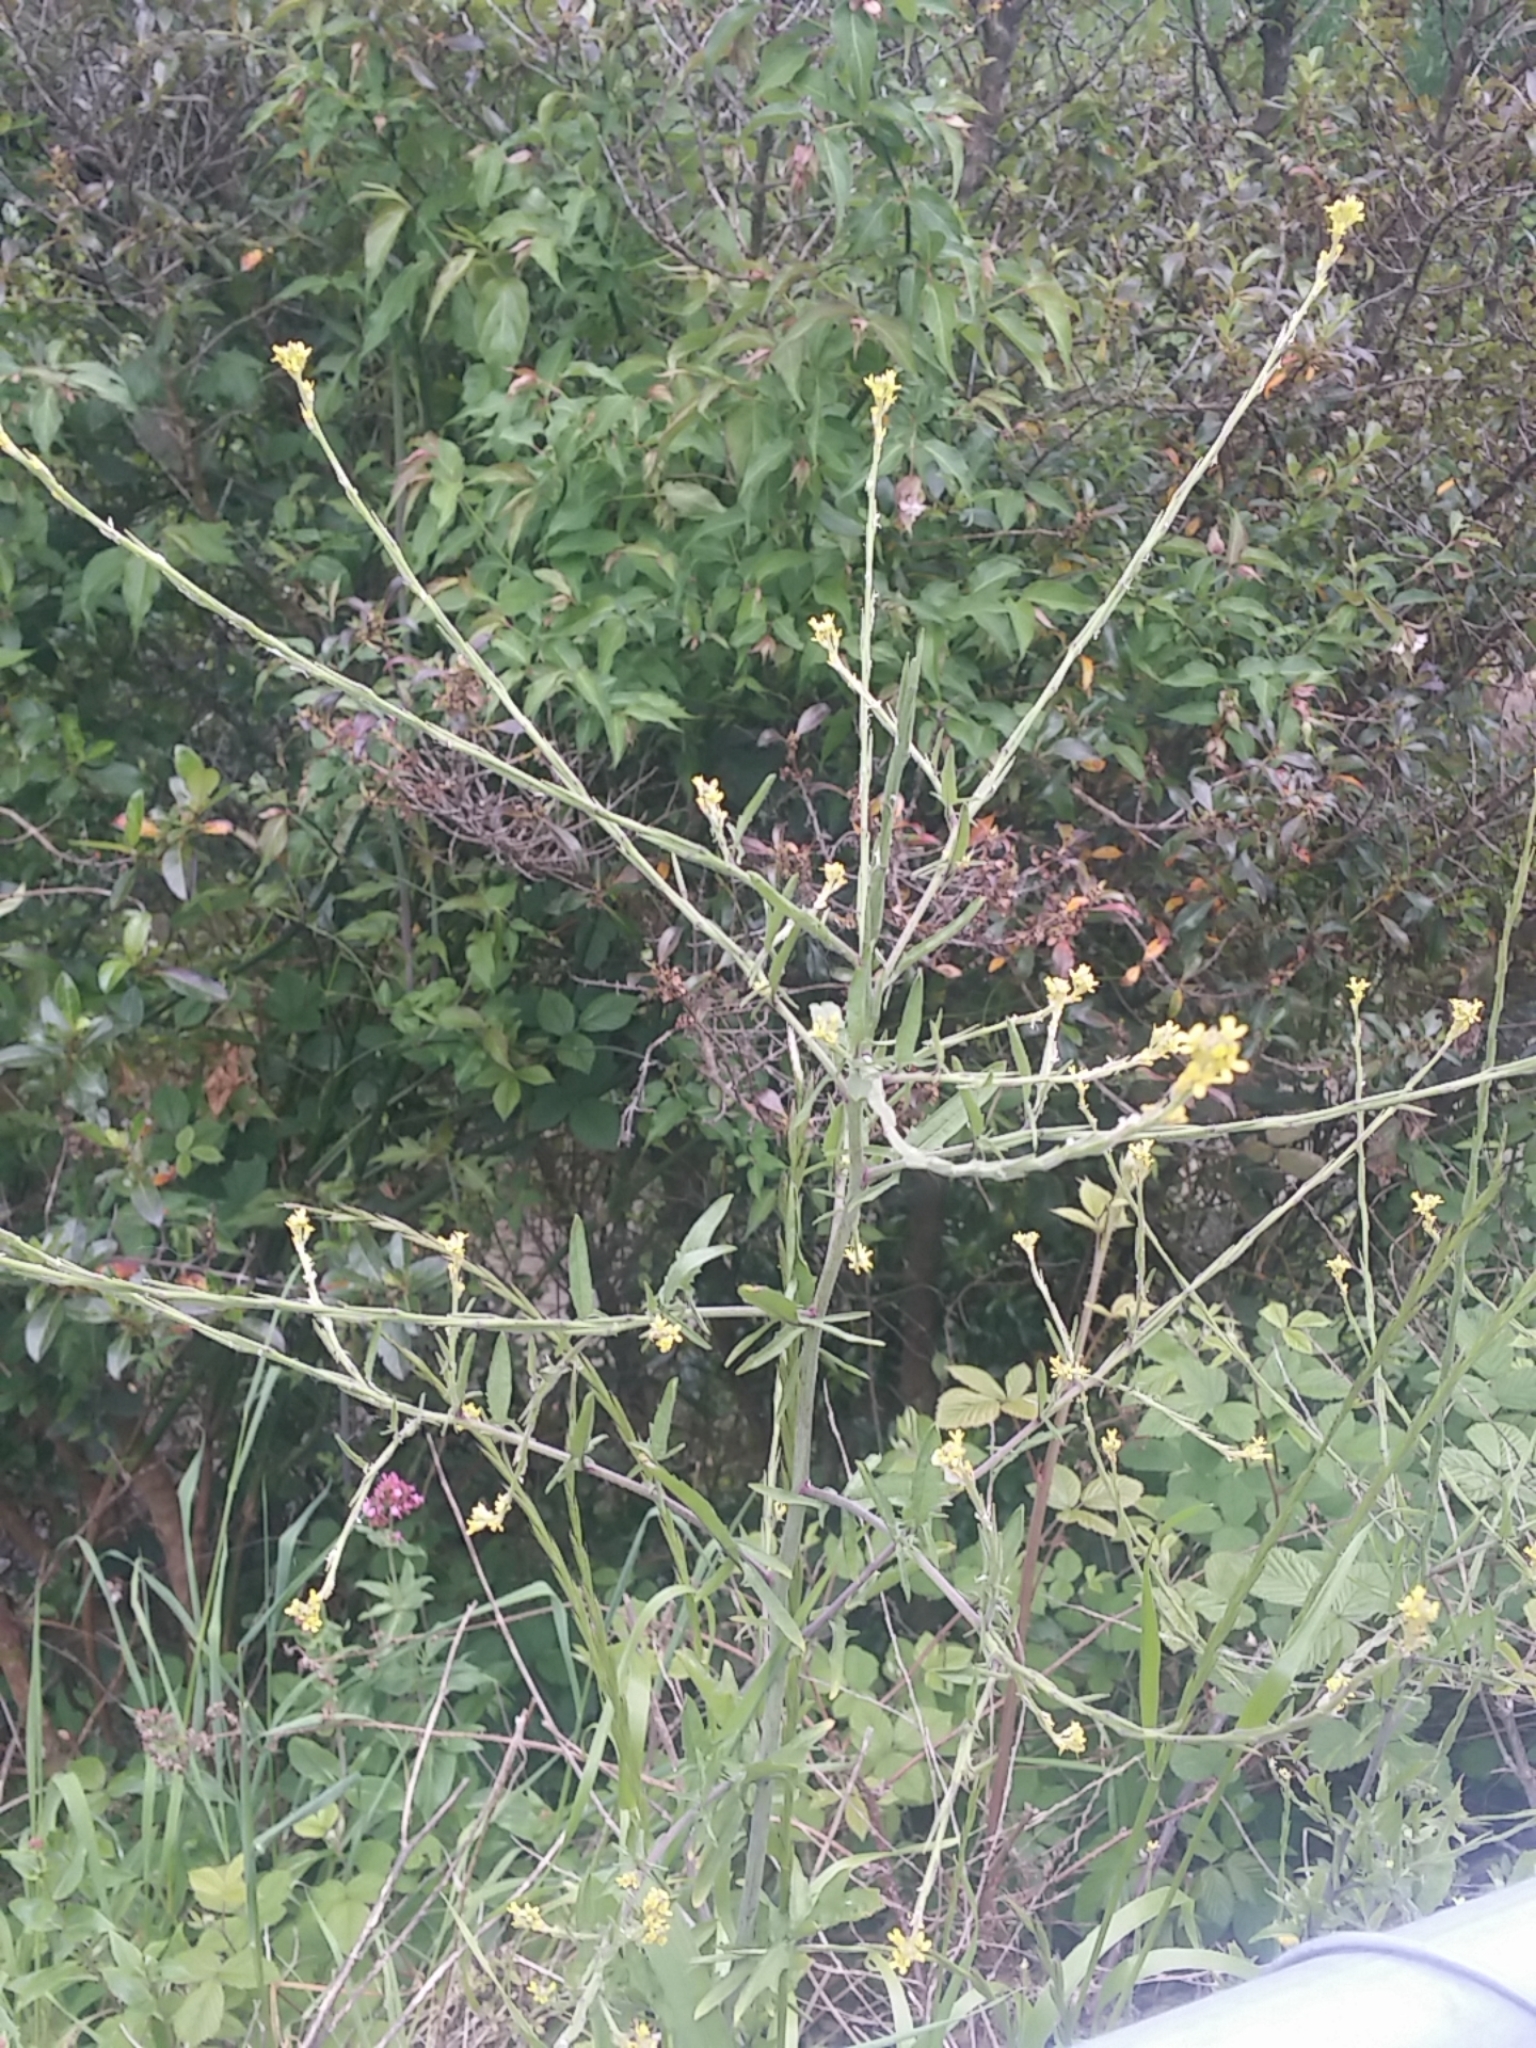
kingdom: Plantae
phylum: Tracheophyta
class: Magnoliopsida
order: Brassicales
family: Brassicaceae
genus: Sisymbrium
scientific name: Sisymbrium officinale
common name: Hedge mustard
